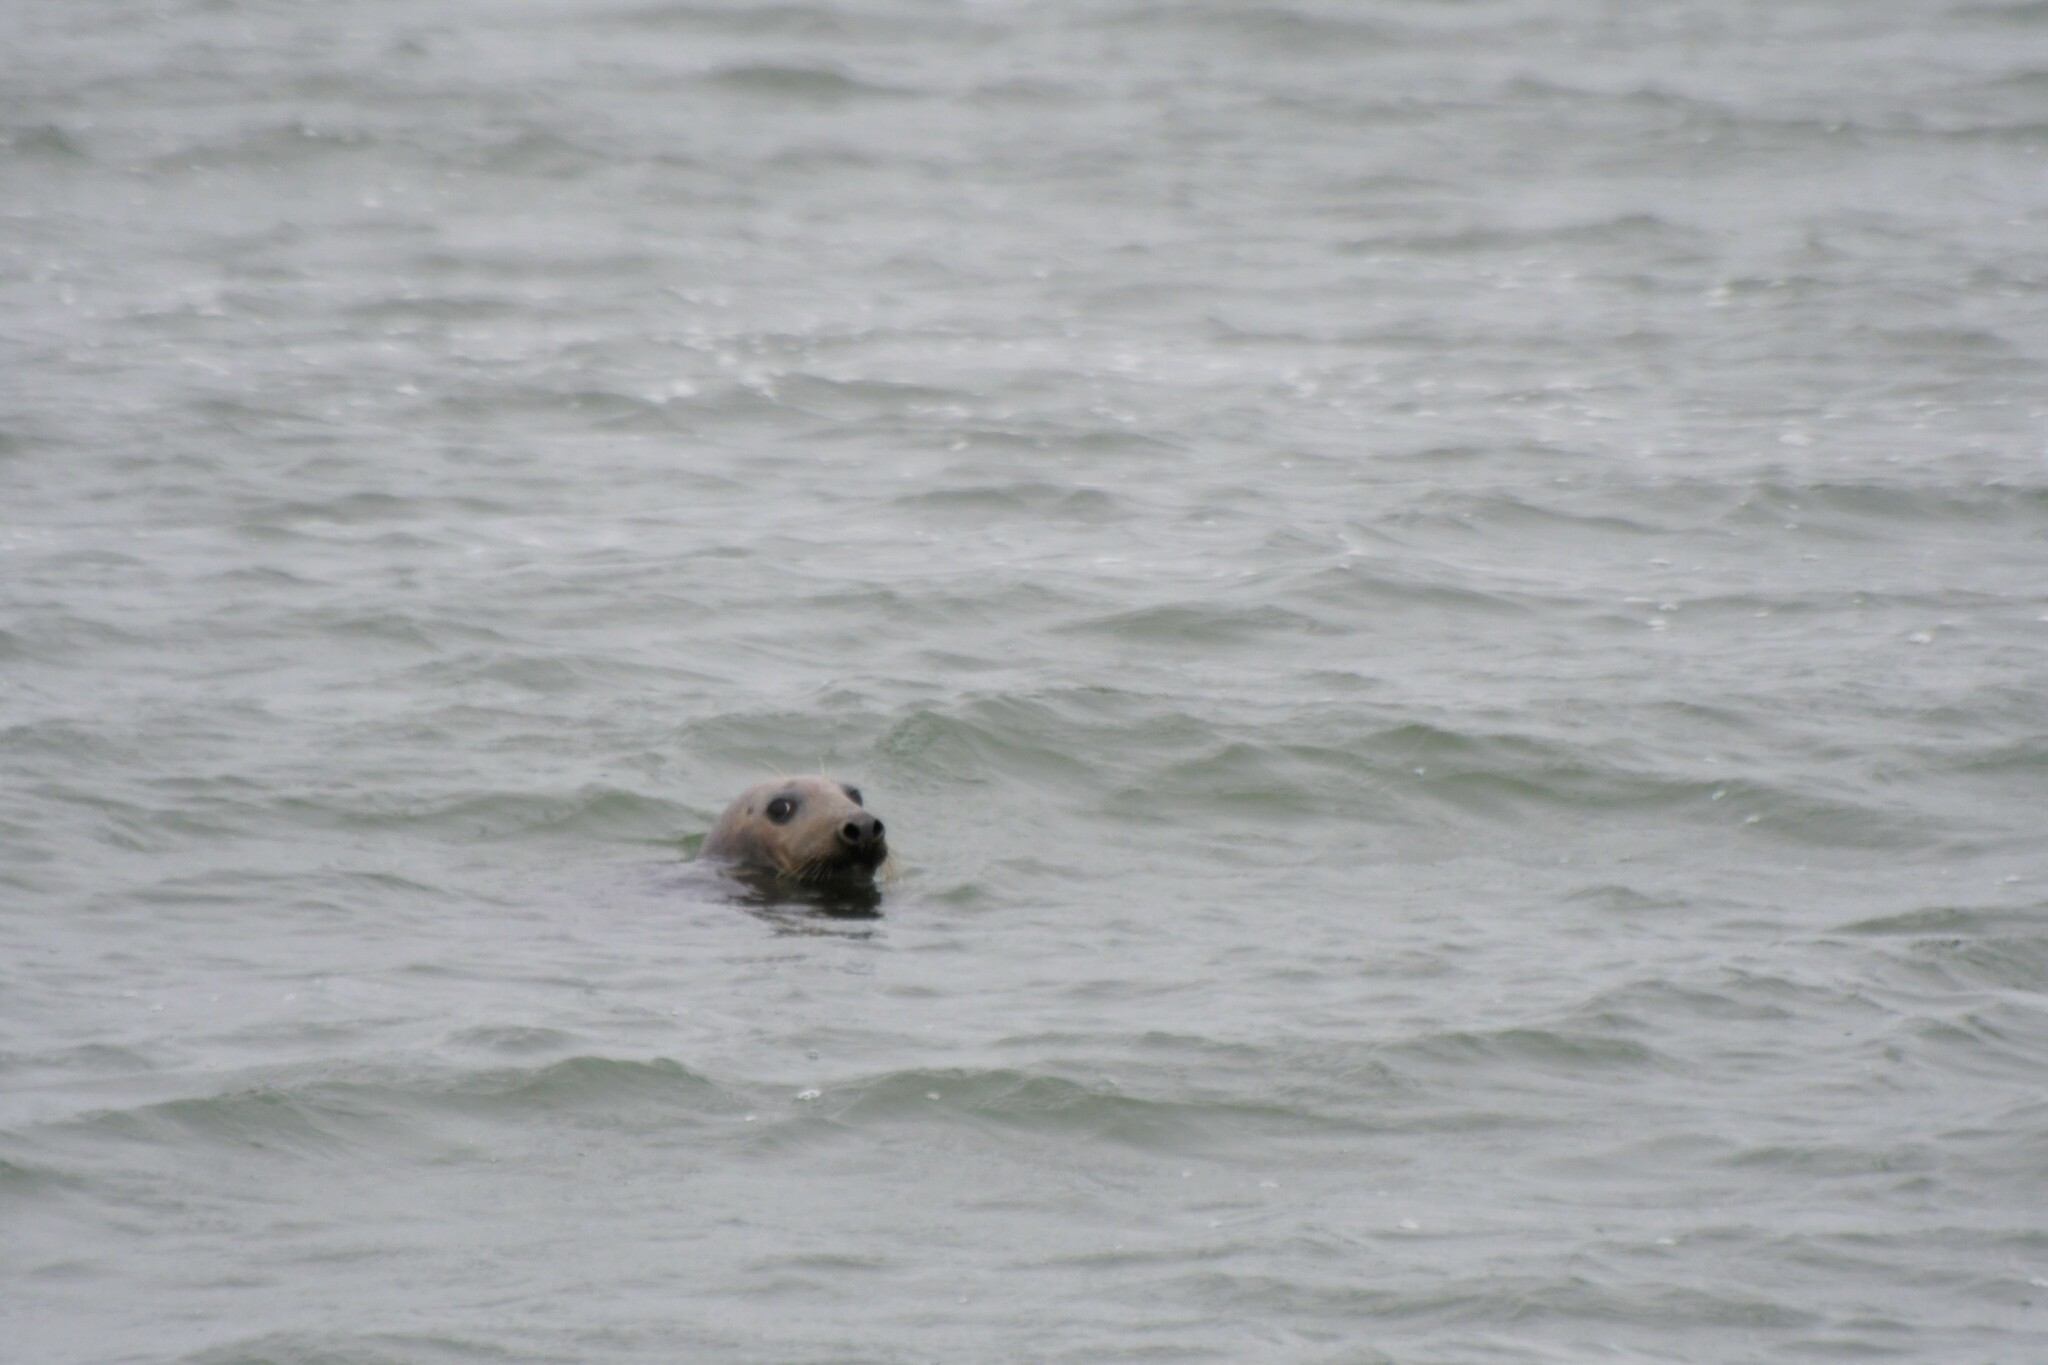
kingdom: Animalia
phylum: Chordata
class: Mammalia
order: Carnivora
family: Phocidae
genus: Halichoerus
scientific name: Halichoerus grypus
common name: Grey seal
